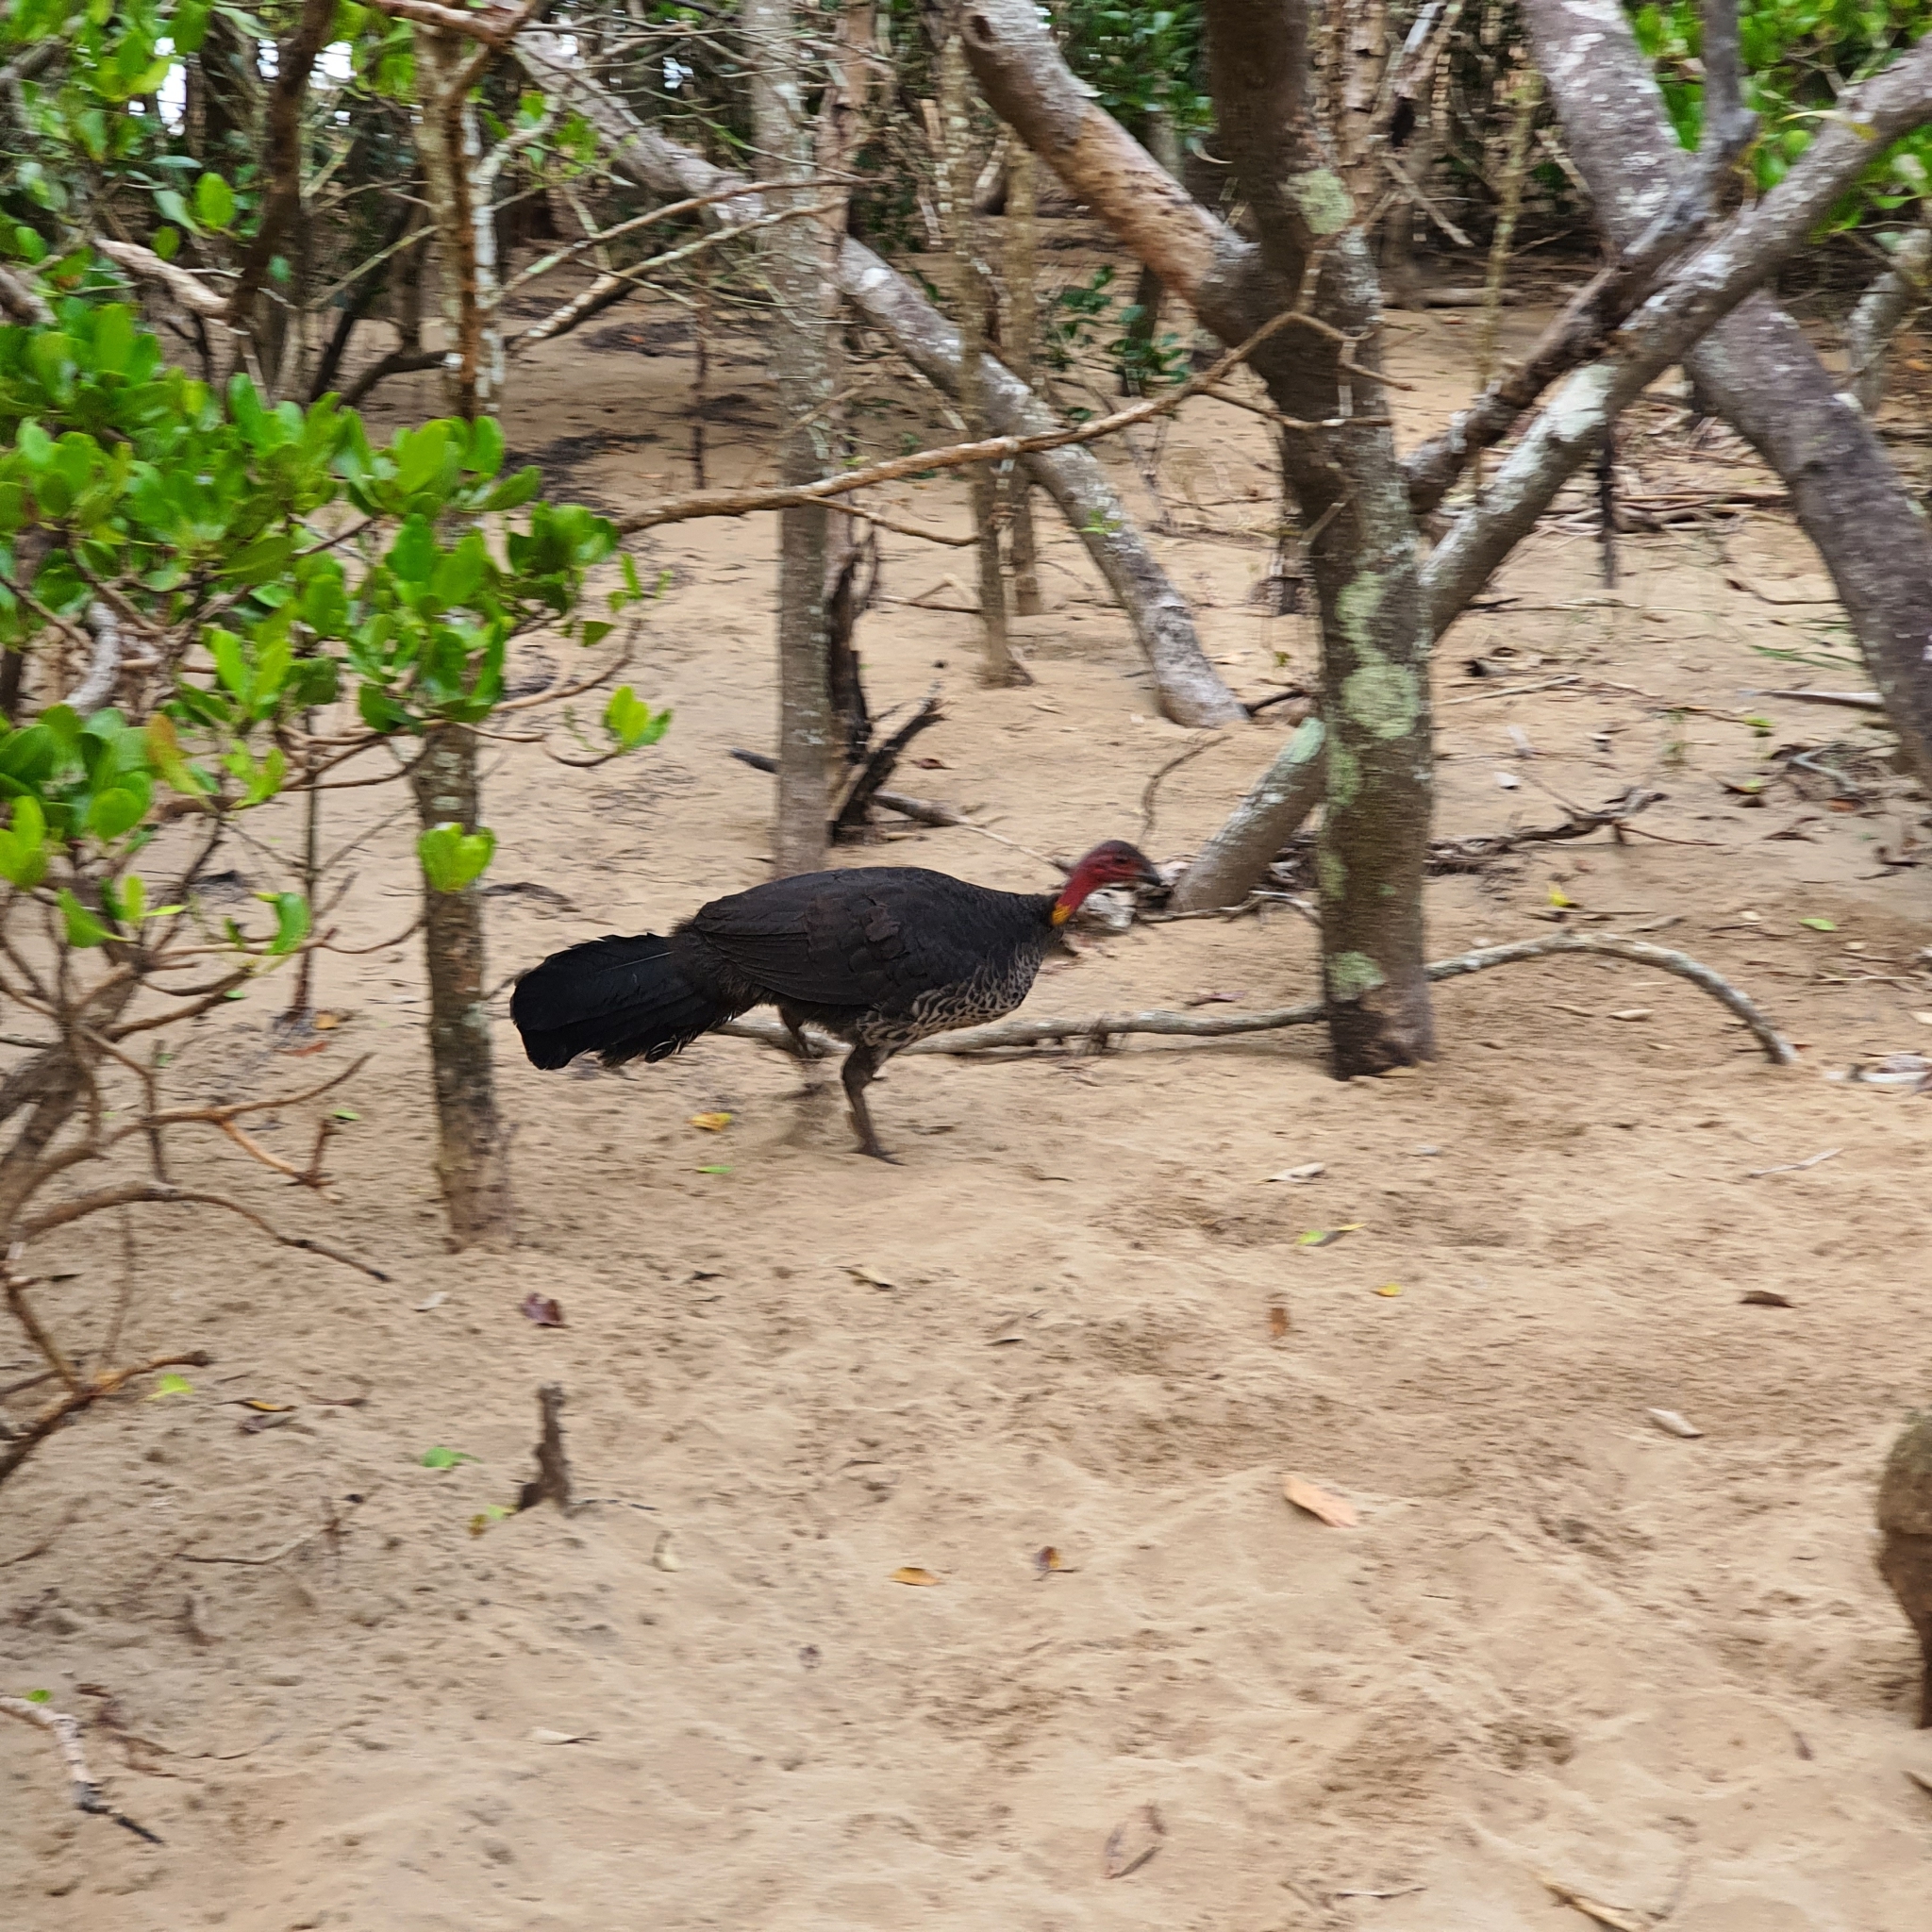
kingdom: Animalia
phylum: Chordata
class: Aves
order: Galliformes
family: Megapodiidae
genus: Alectura
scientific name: Alectura lathami
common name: Australian brushturkey
